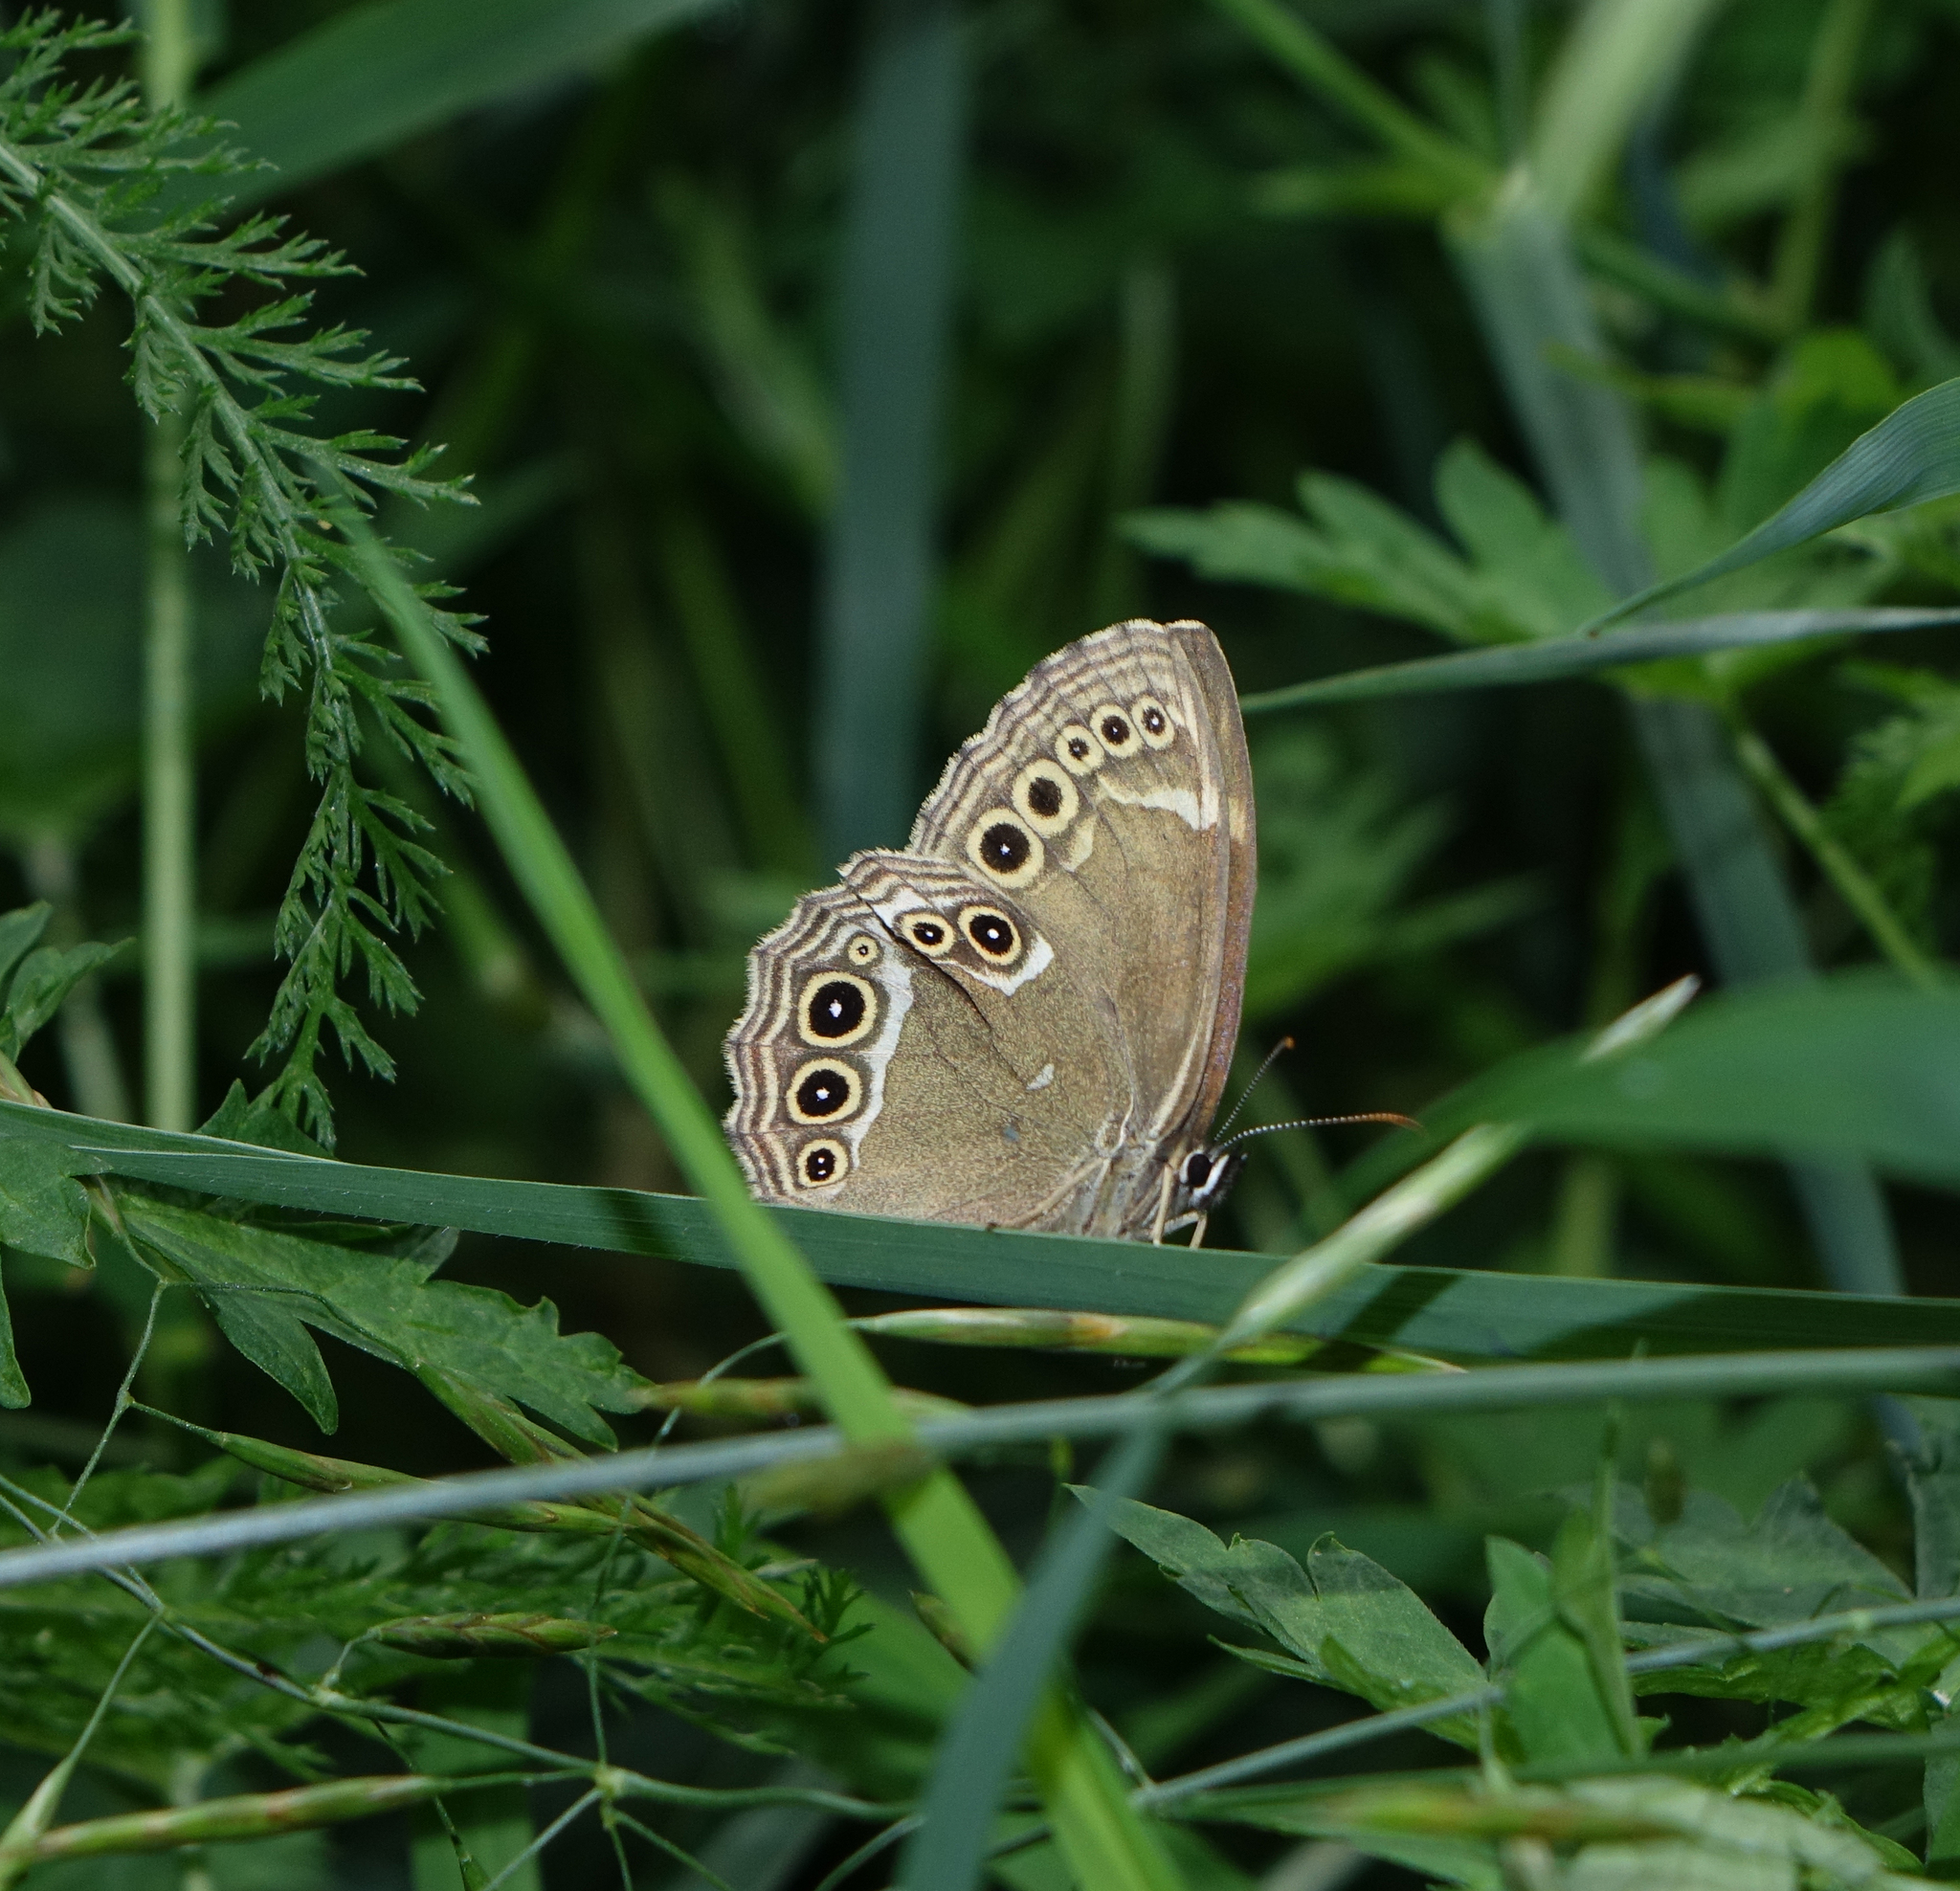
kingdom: Animalia
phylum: Arthropoda
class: Insecta
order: Lepidoptera
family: Nymphalidae
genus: Pararge
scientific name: Pararge Lopinga achine
